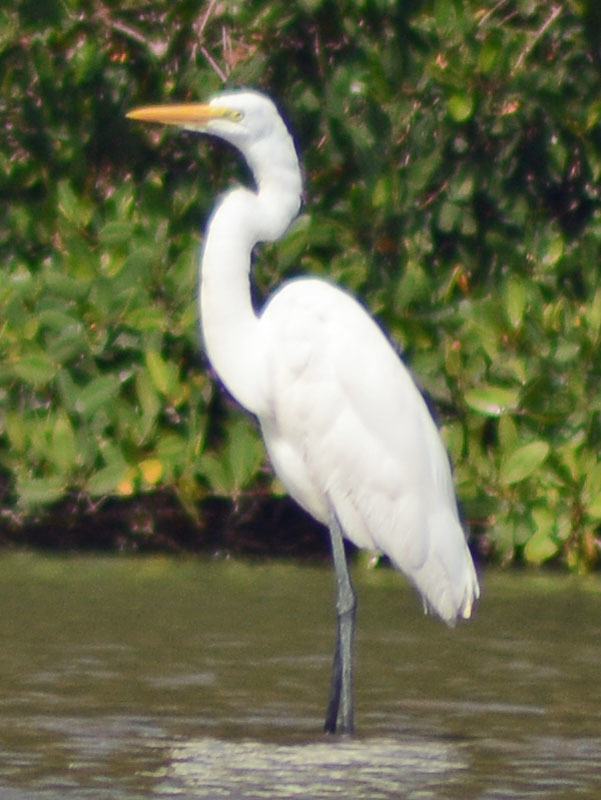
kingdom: Animalia
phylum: Chordata
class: Aves
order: Pelecaniformes
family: Ardeidae
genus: Ardea
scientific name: Ardea alba
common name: Great egret
